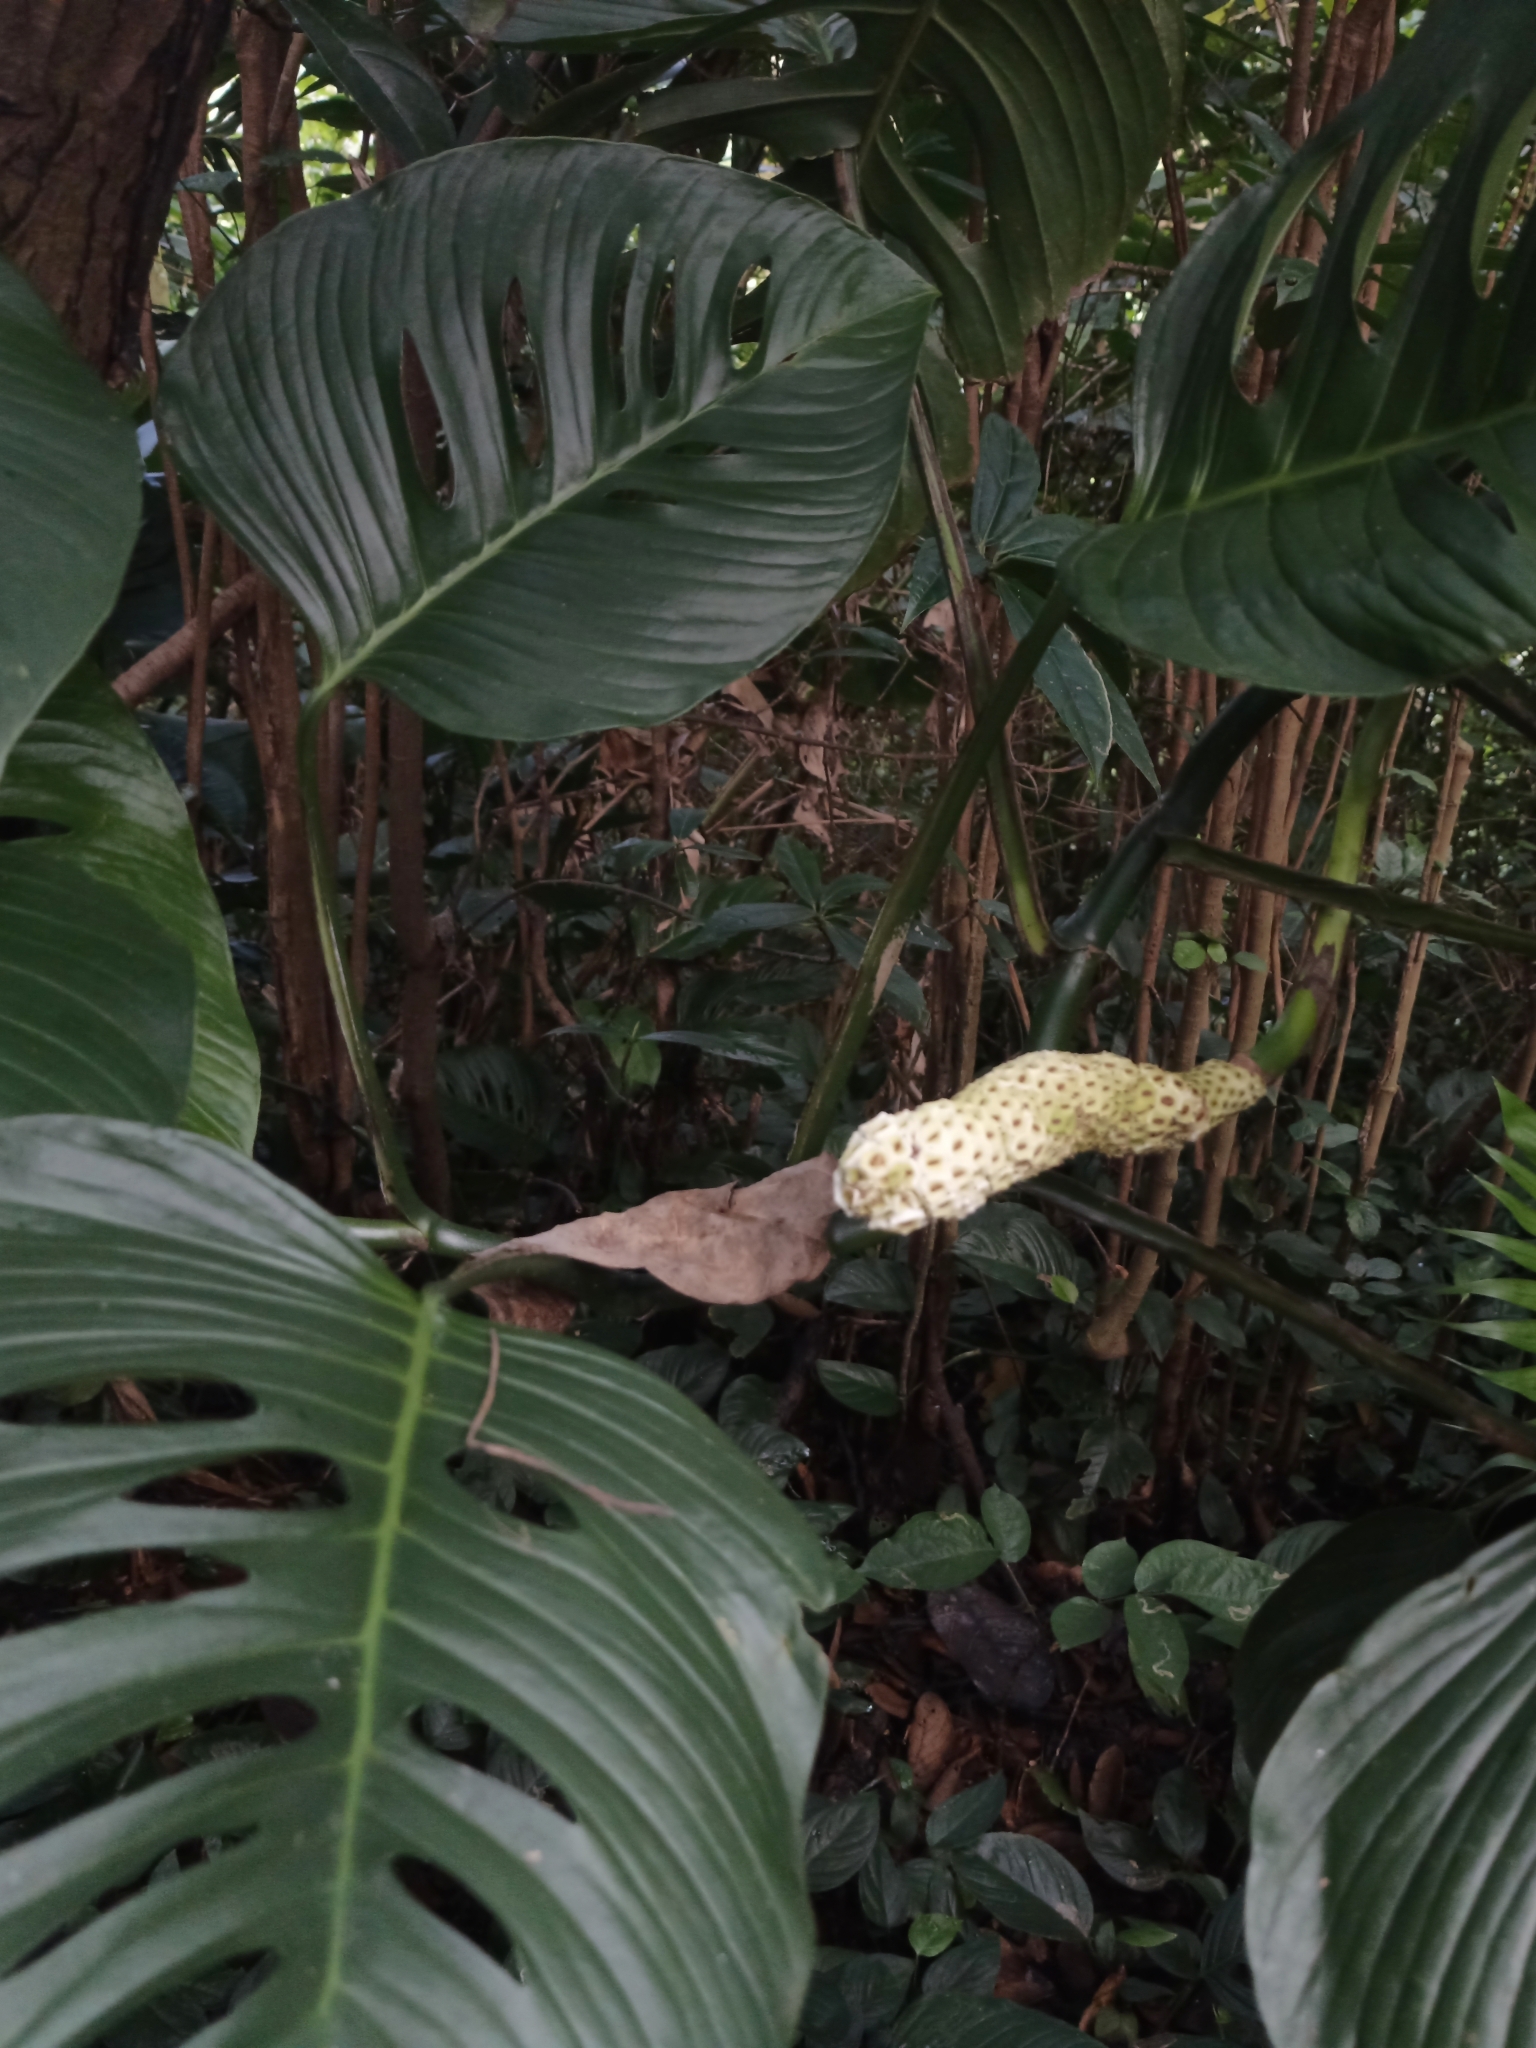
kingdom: Plantae
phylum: Tracheophyta
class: Liliopsida
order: Alismatales
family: Araceae
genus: Monstera
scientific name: Monstera adansonii
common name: Tarovine
